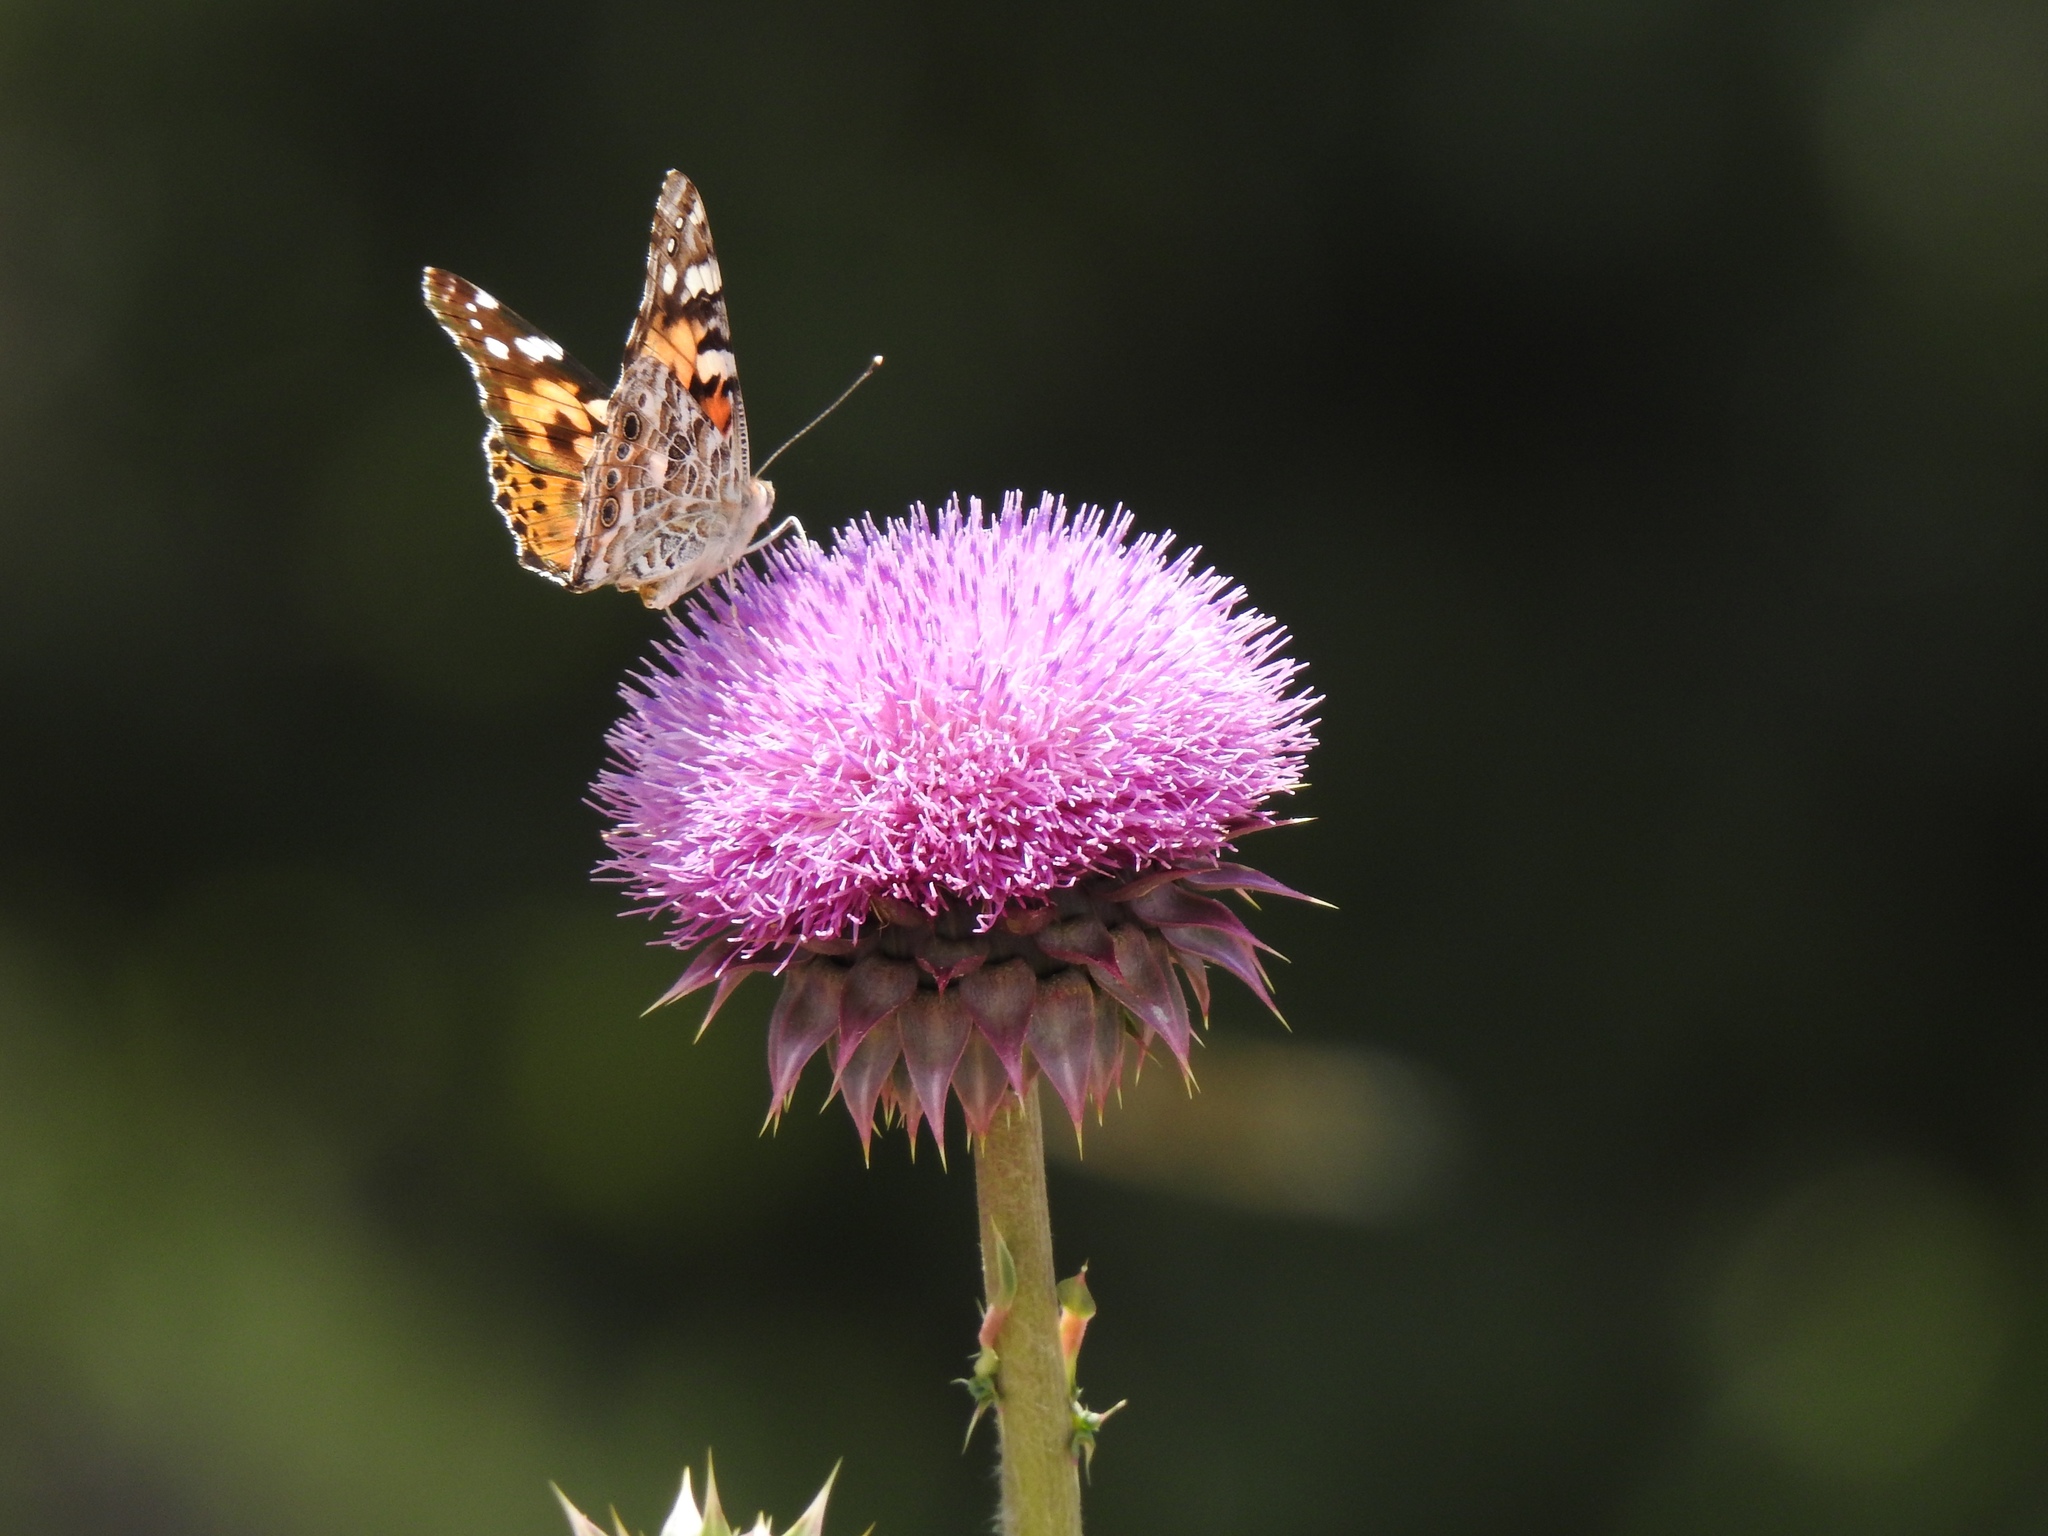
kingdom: Animalia
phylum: Arthropoda
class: Insecta
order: Lepidoptera
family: Nymphalidae
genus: Vanessa
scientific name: Vanessa cardui
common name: Painted lady
